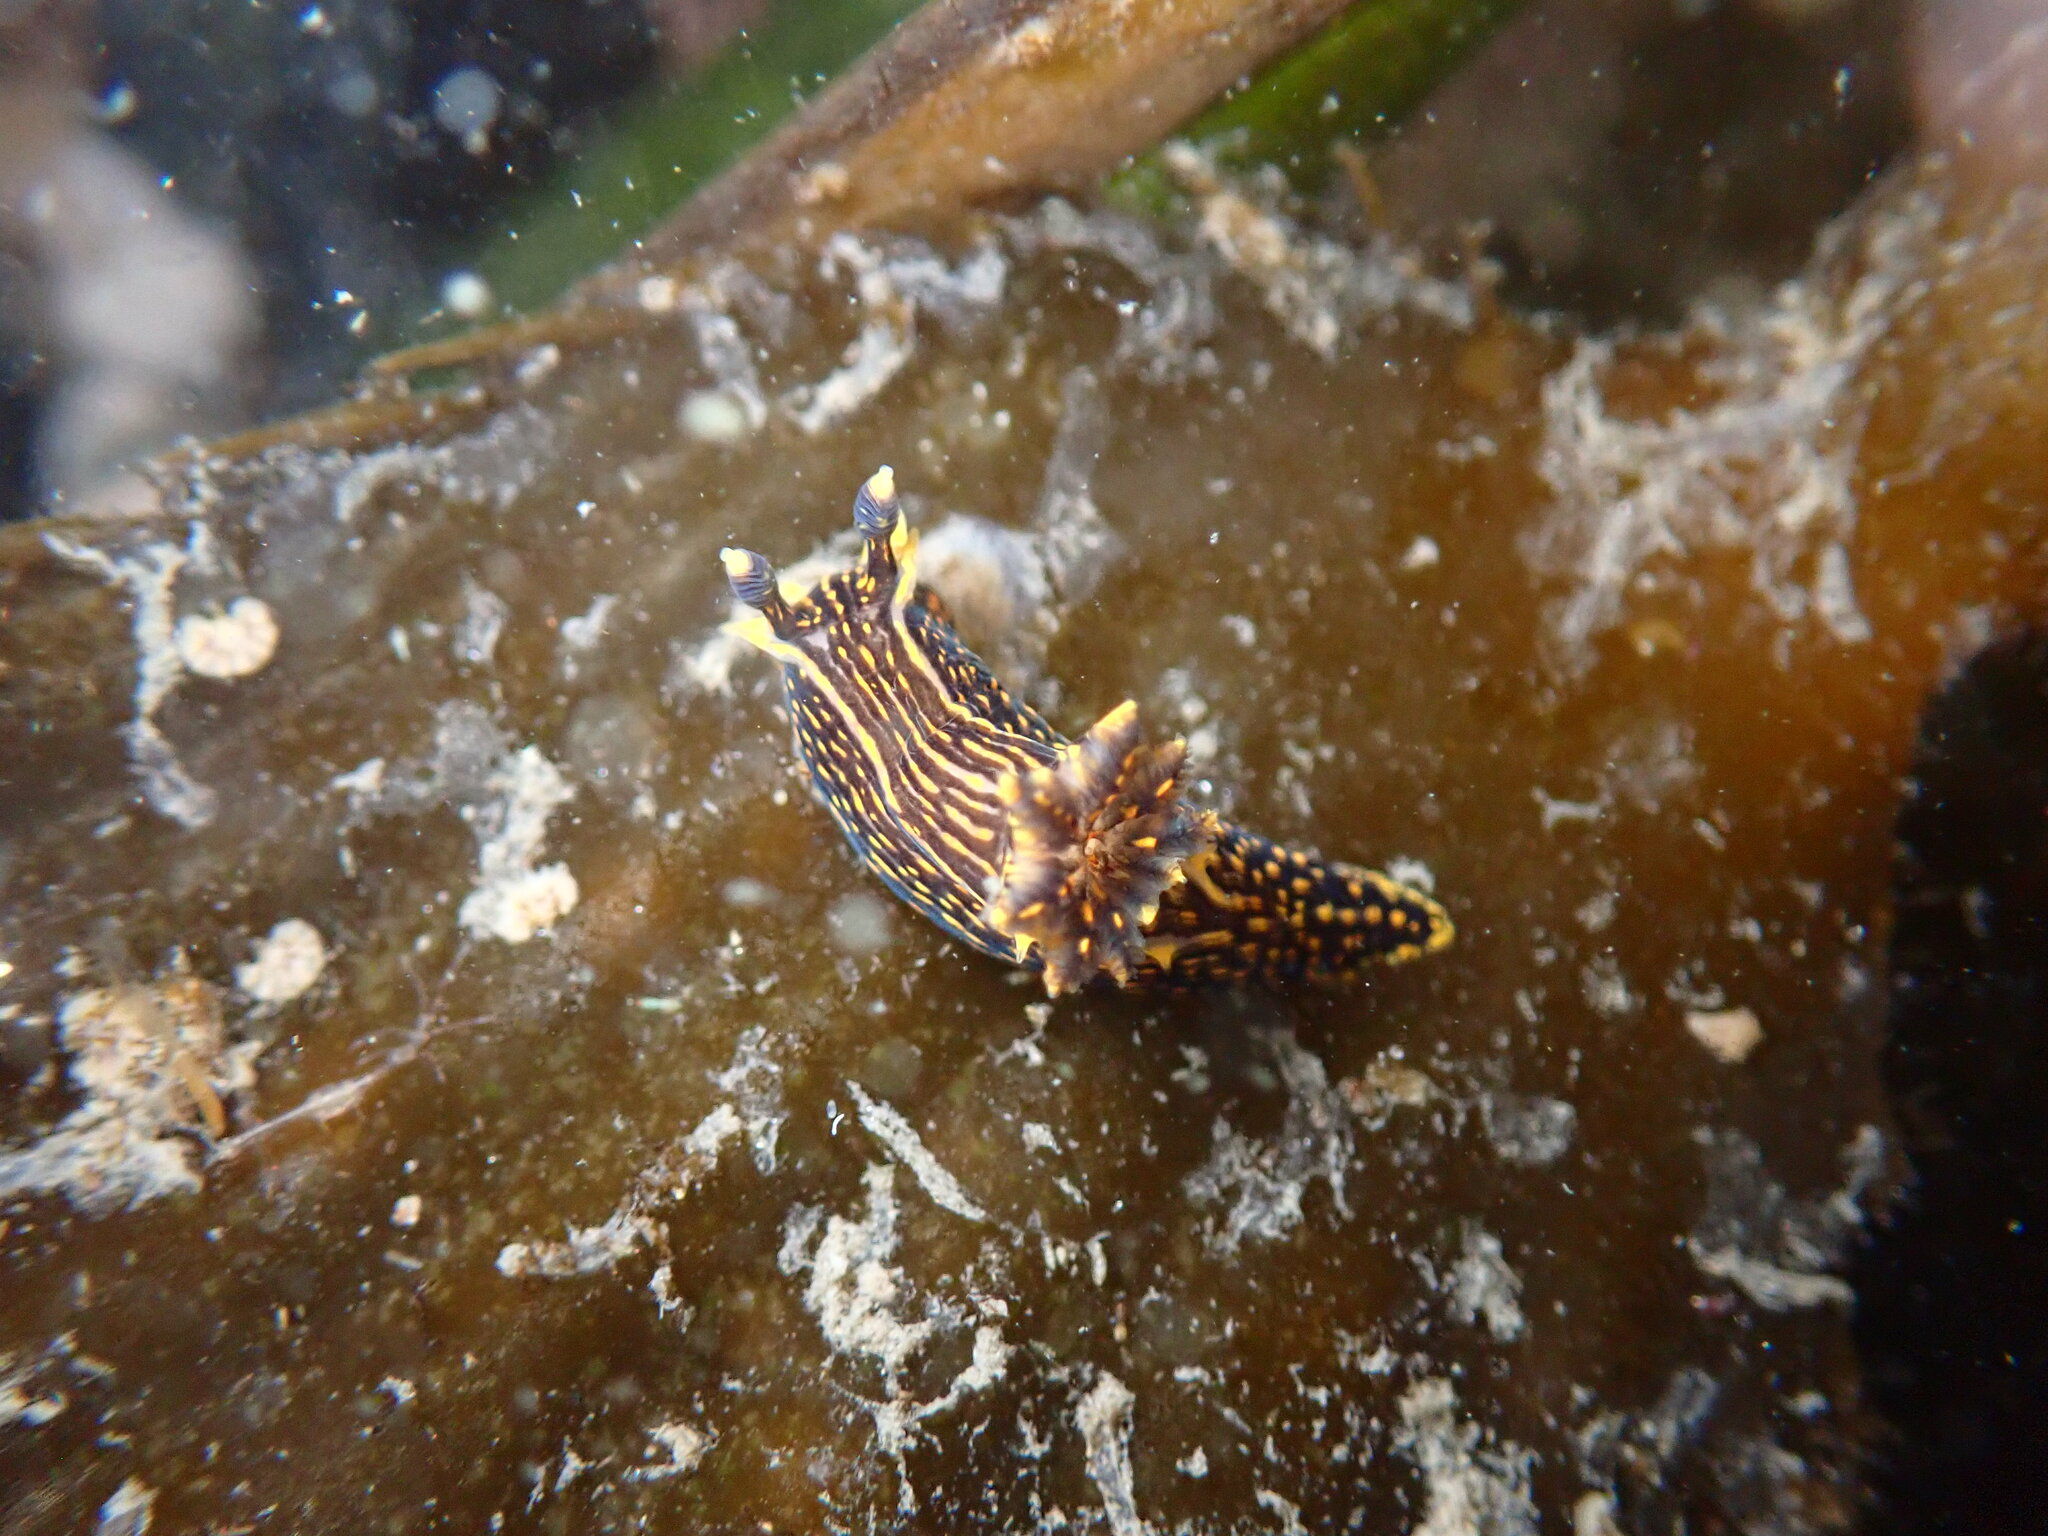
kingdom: Animalia
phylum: Mollusca
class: Gastropoda
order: Nudibranchia
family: Polyceridae
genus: Polycera
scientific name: Polycera atra
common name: Orange-spike polycera
